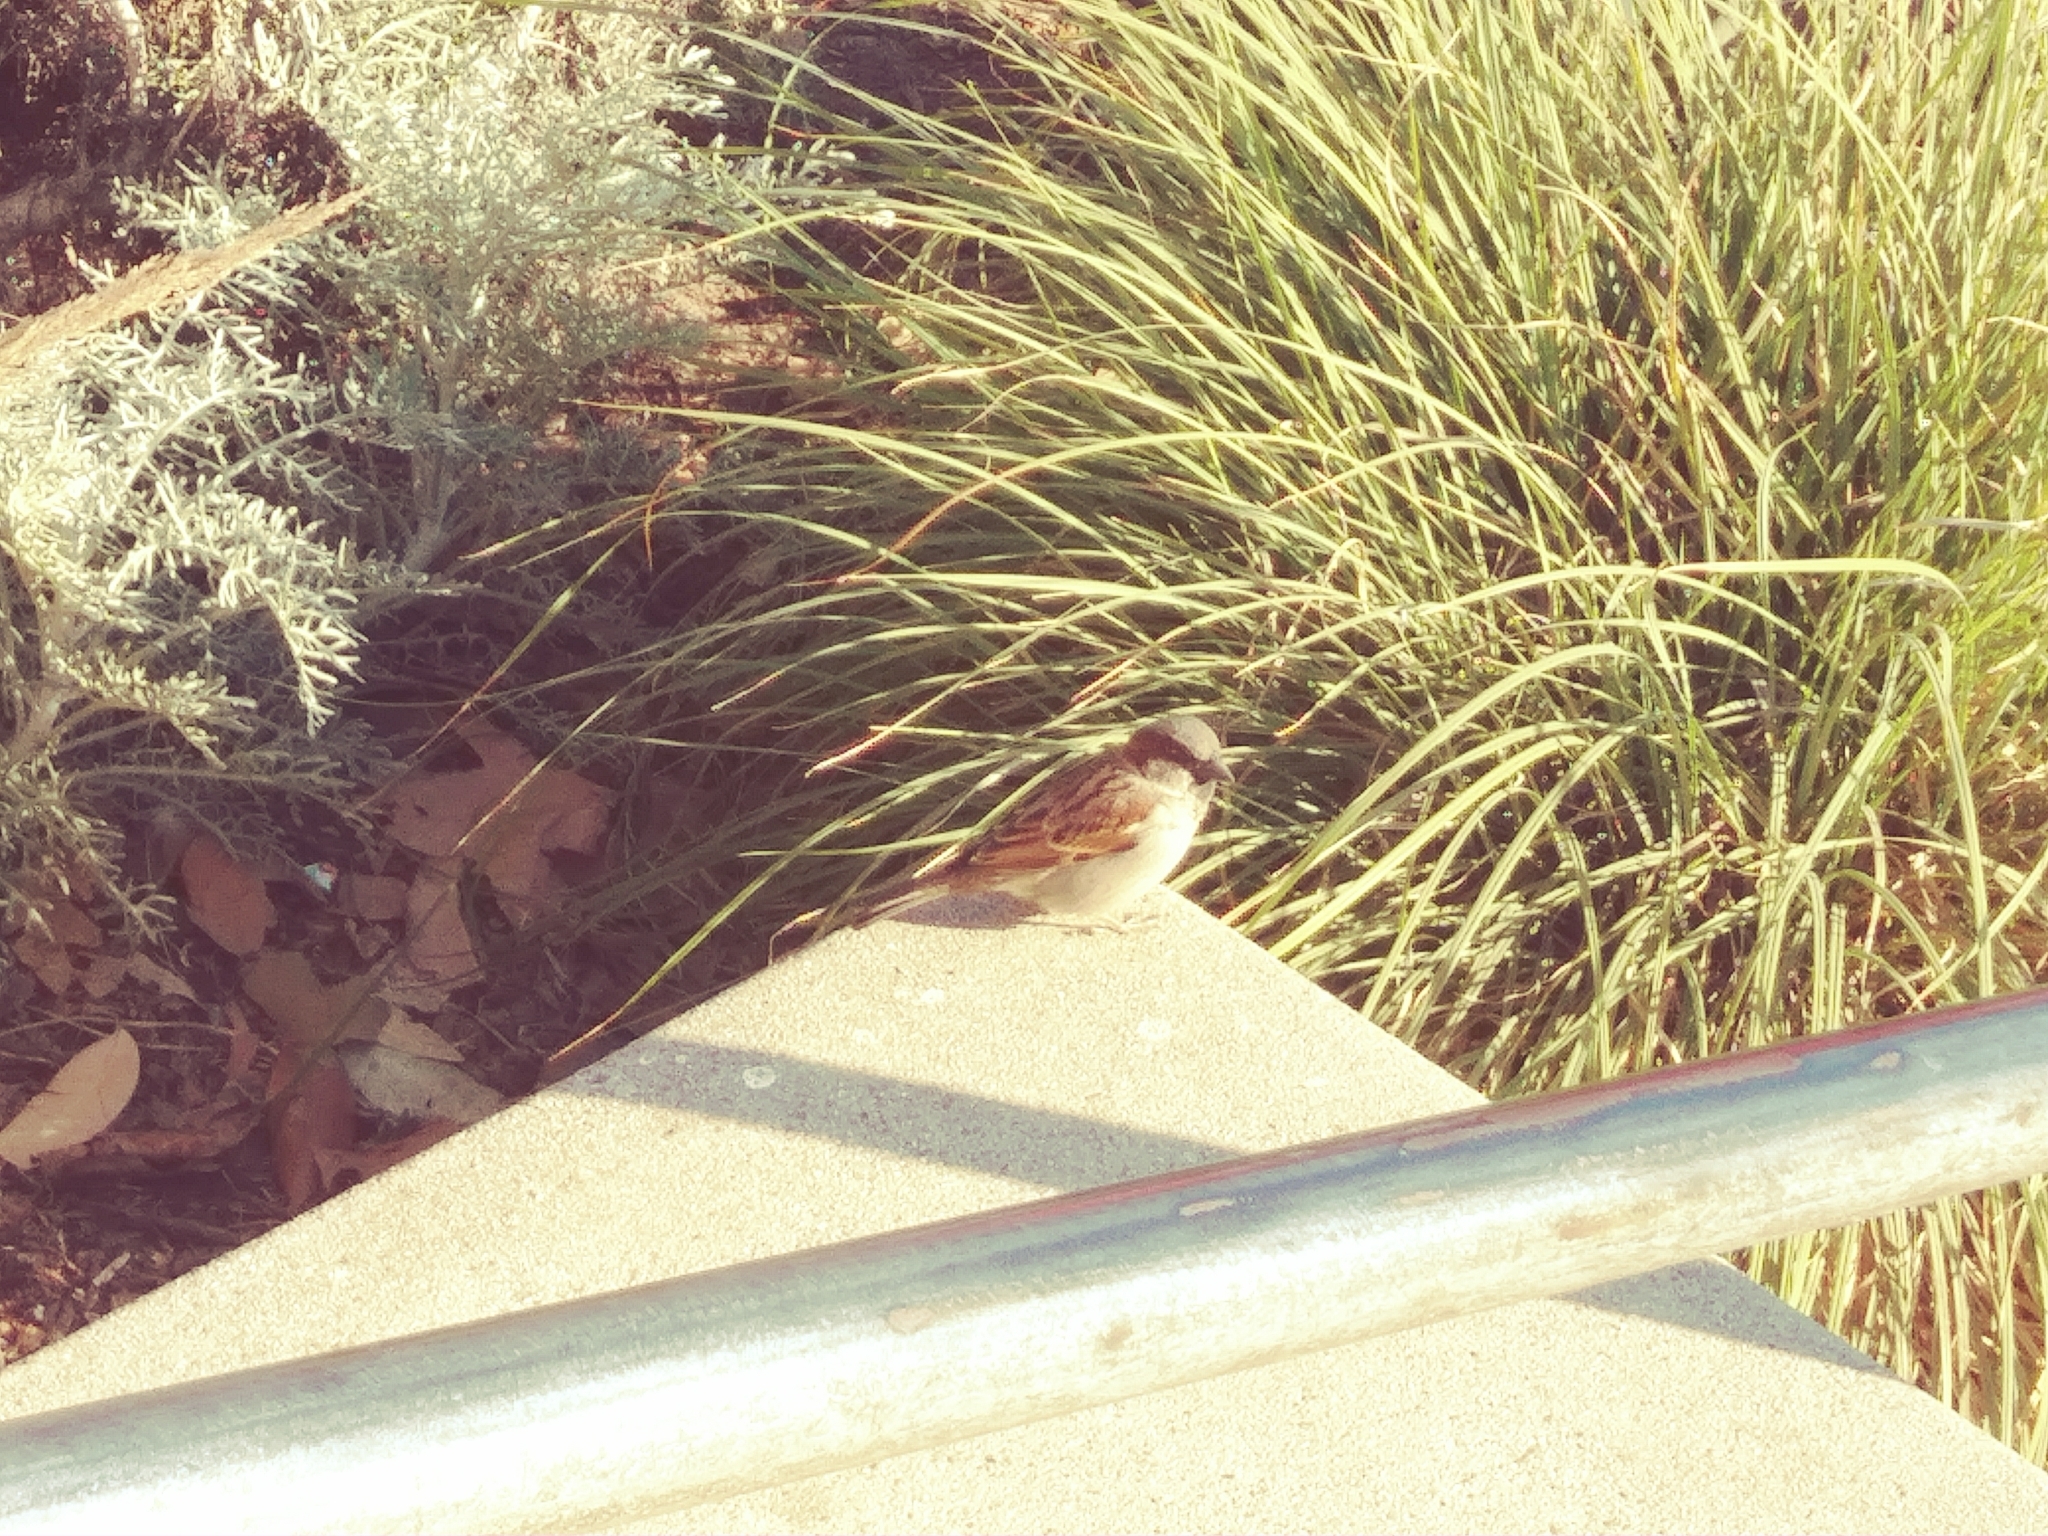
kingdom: Animalia
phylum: Chordata
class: Aves
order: Passeriformes
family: Passeridae
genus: Passer
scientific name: Passer domesticus
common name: House sparrow
